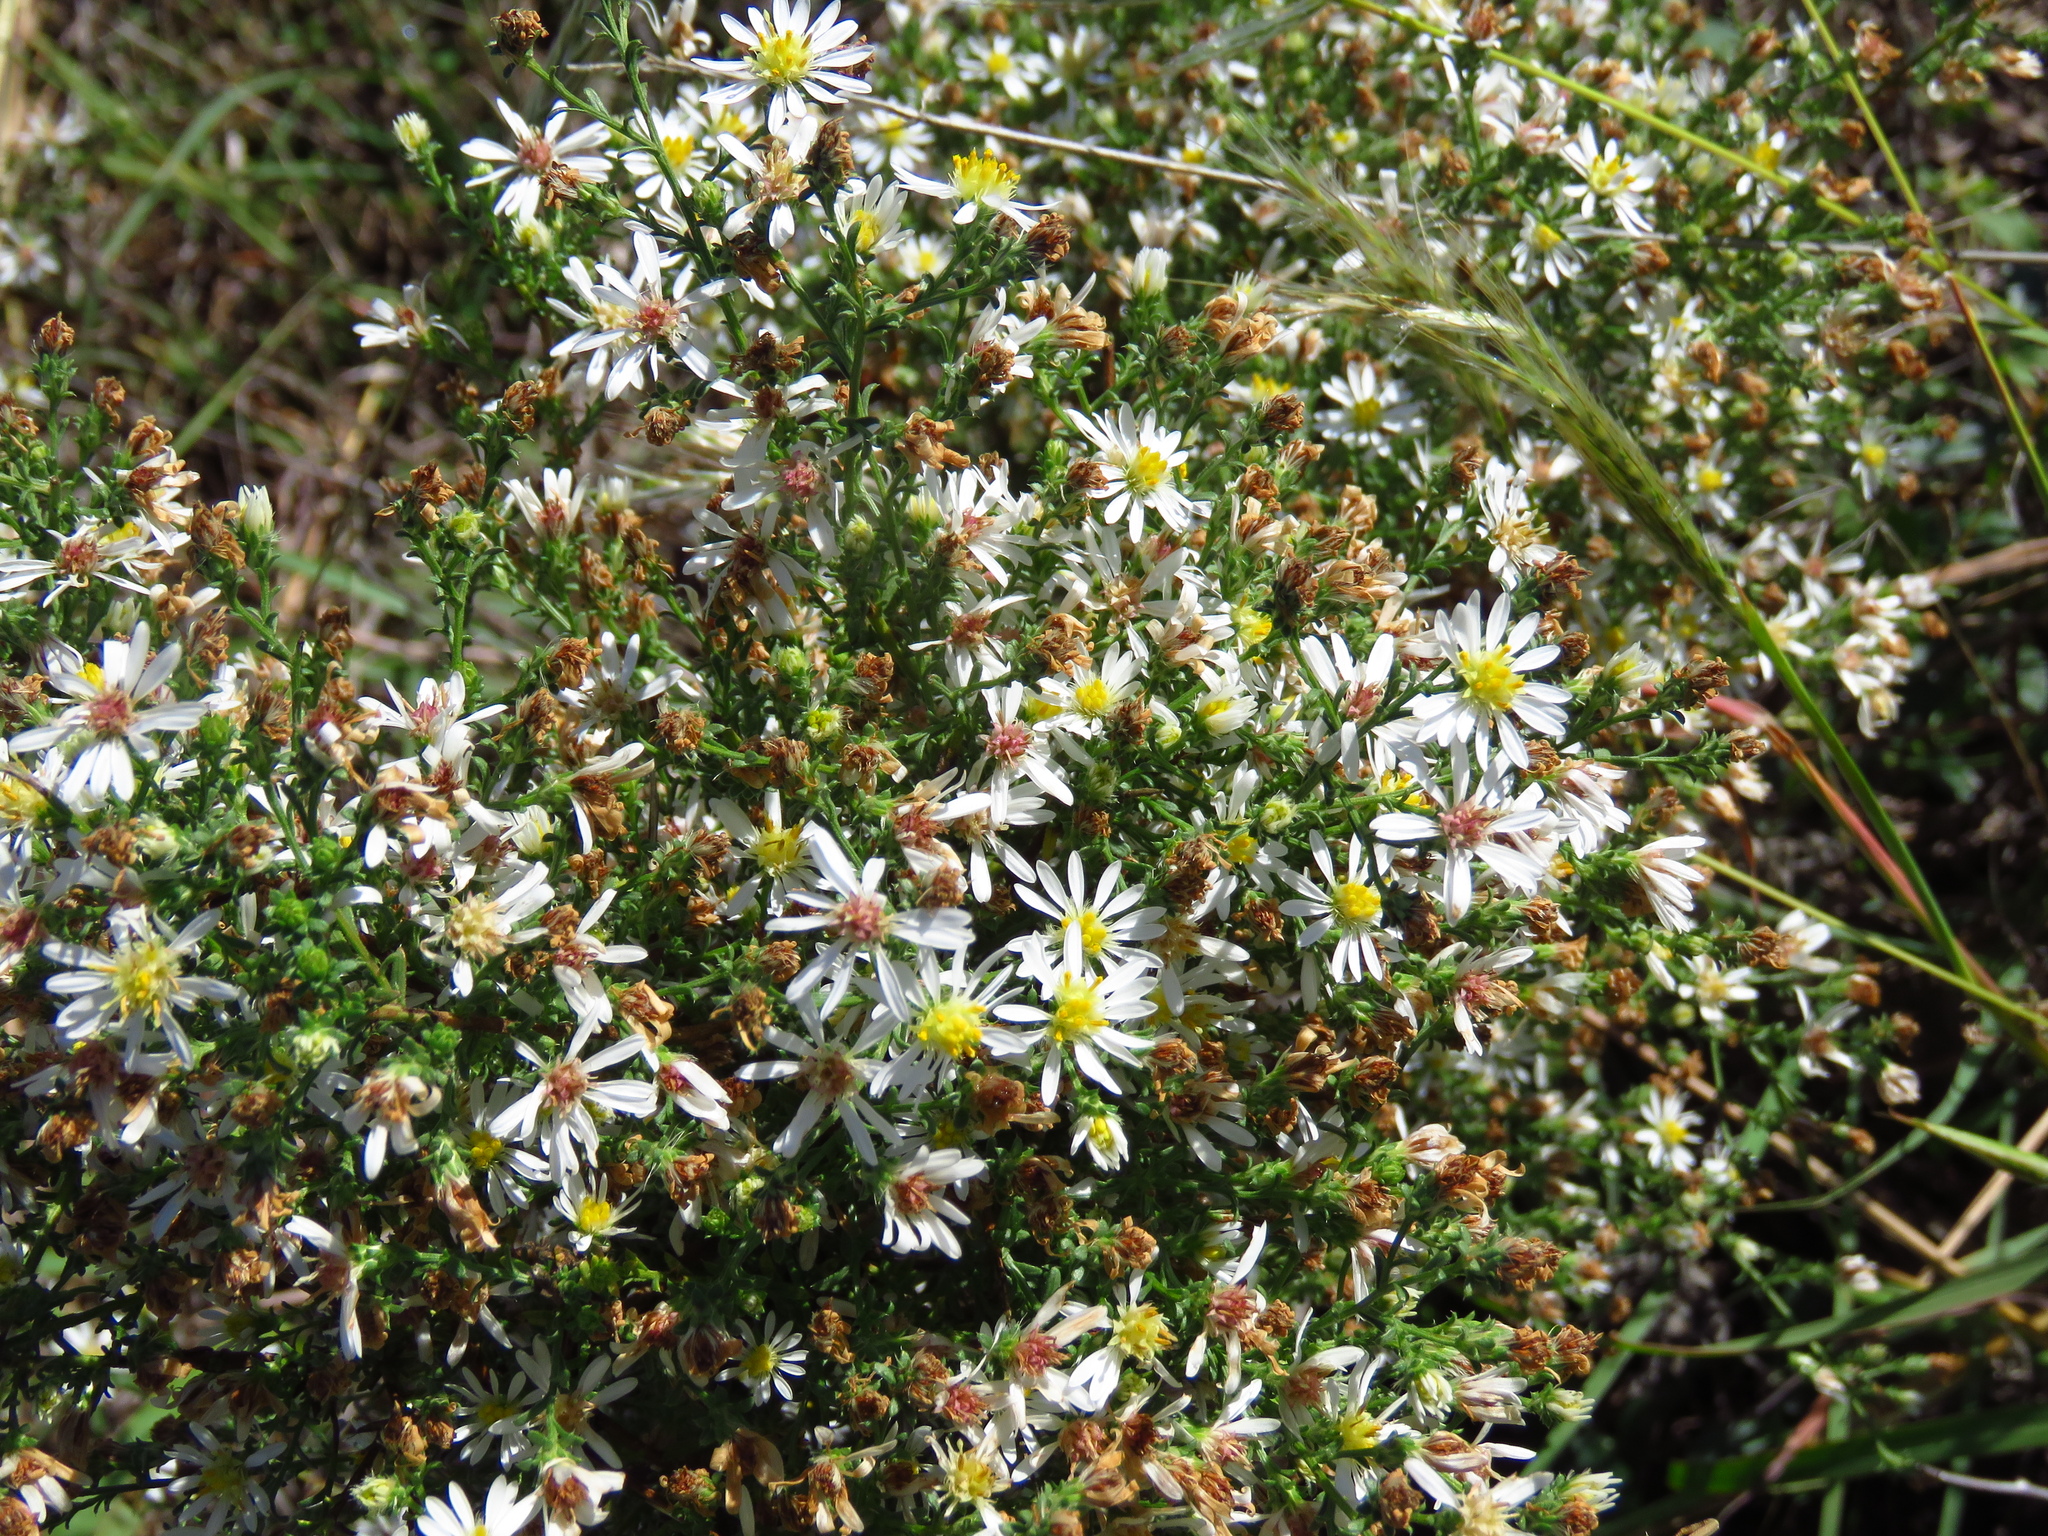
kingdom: Plantae
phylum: Tracheophyta
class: Magnoliopsida
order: Asterales
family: Asteraceae
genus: Symphyotrichum
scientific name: Symphyotrichum ericoides
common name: Heath aster
